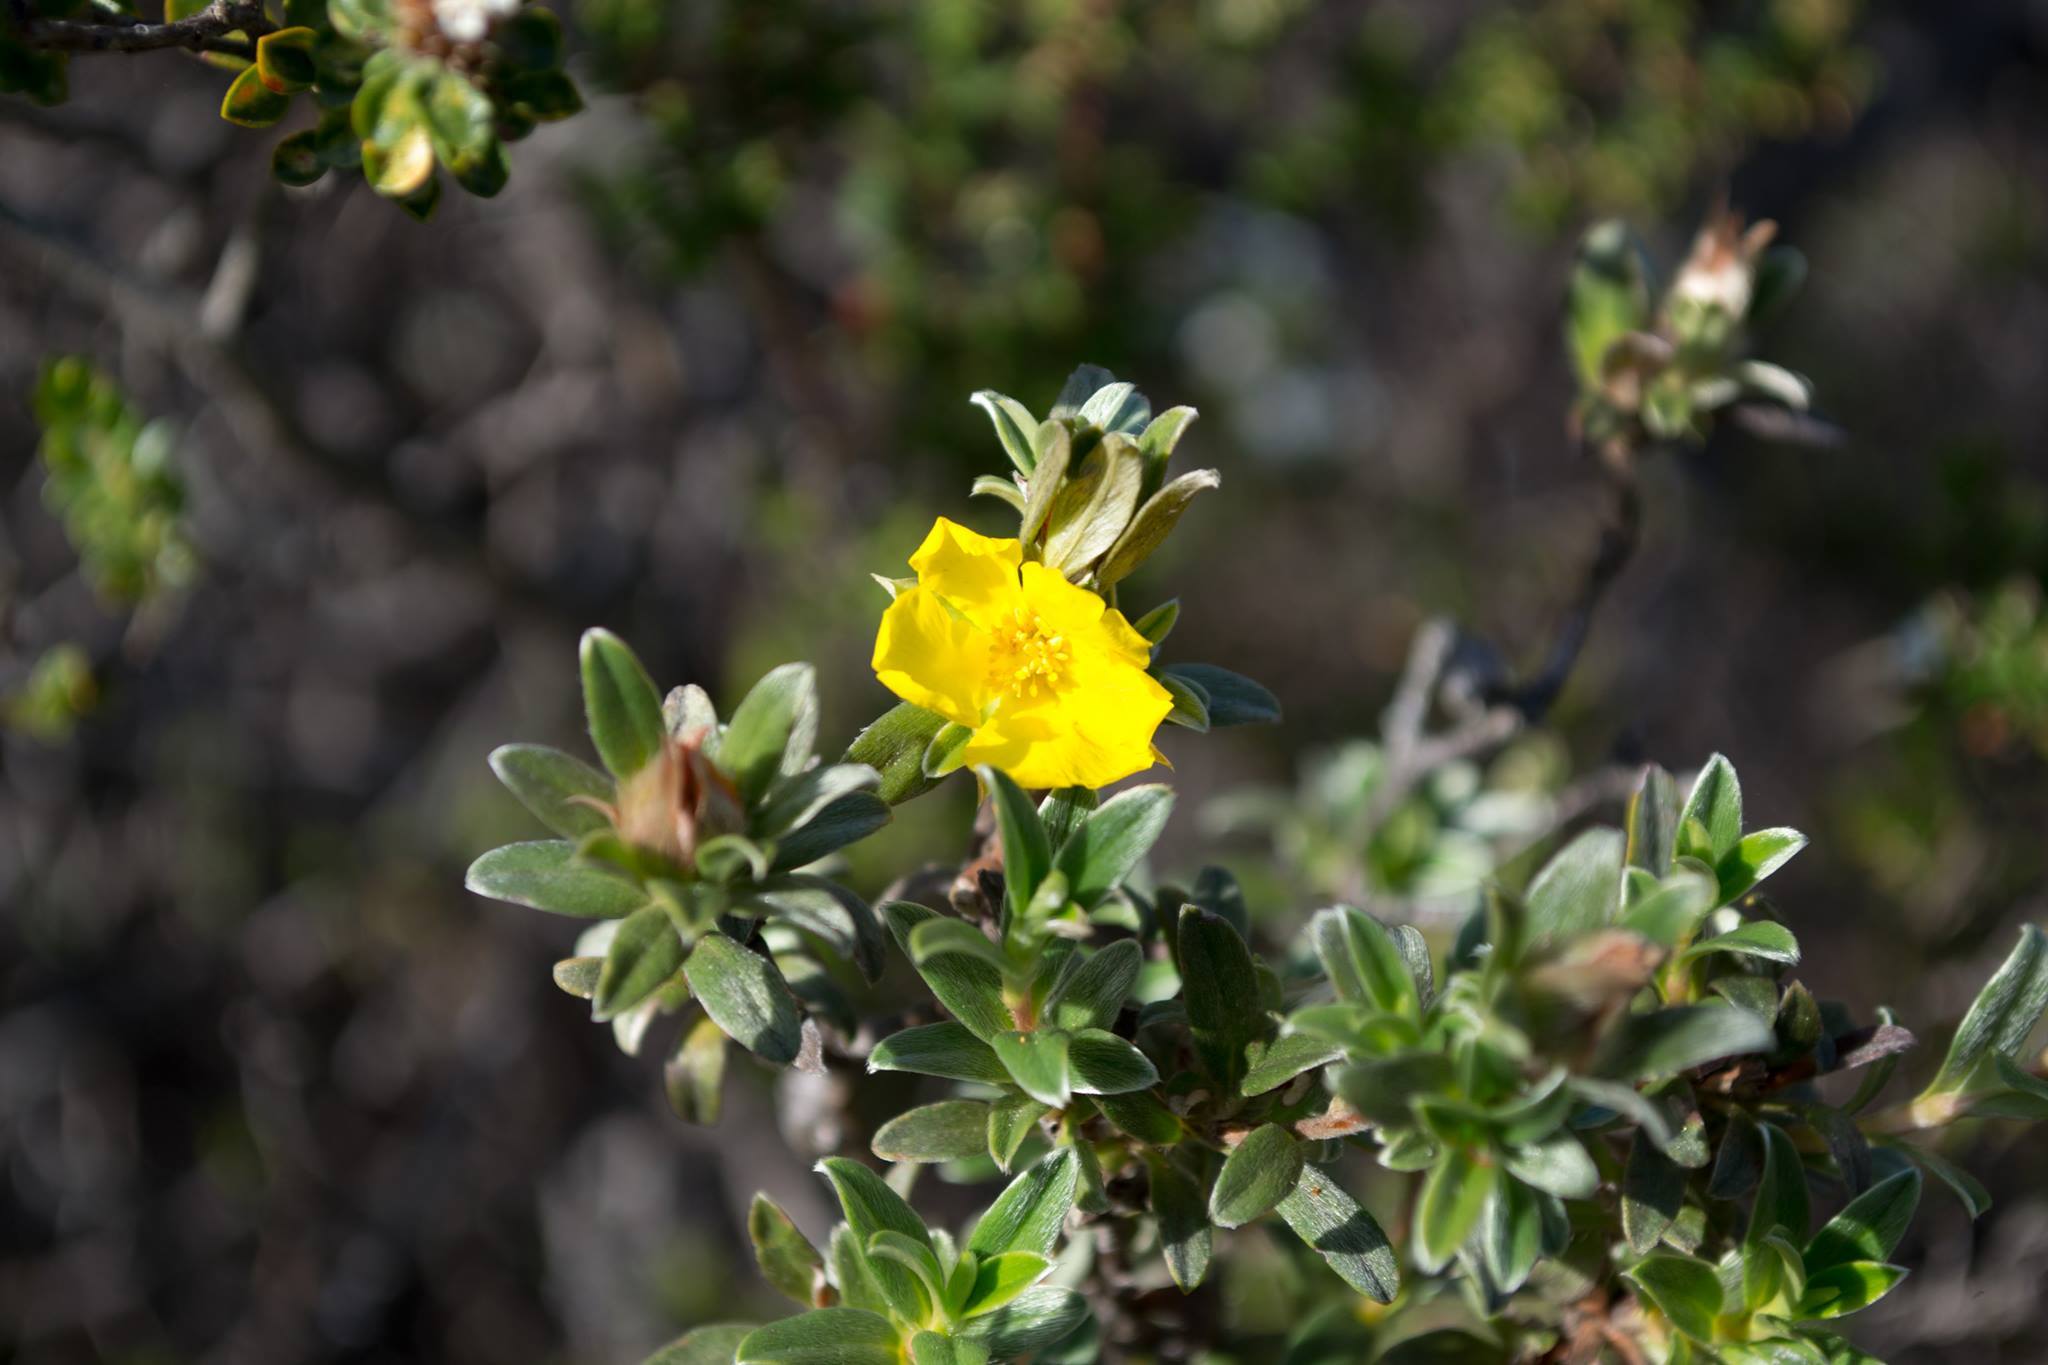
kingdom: Plantae
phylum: Tracheophyta
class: Magnoliopsida
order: Dilleniales
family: Dilleniaceae
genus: Hibbertia
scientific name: Hibbertia argentea
